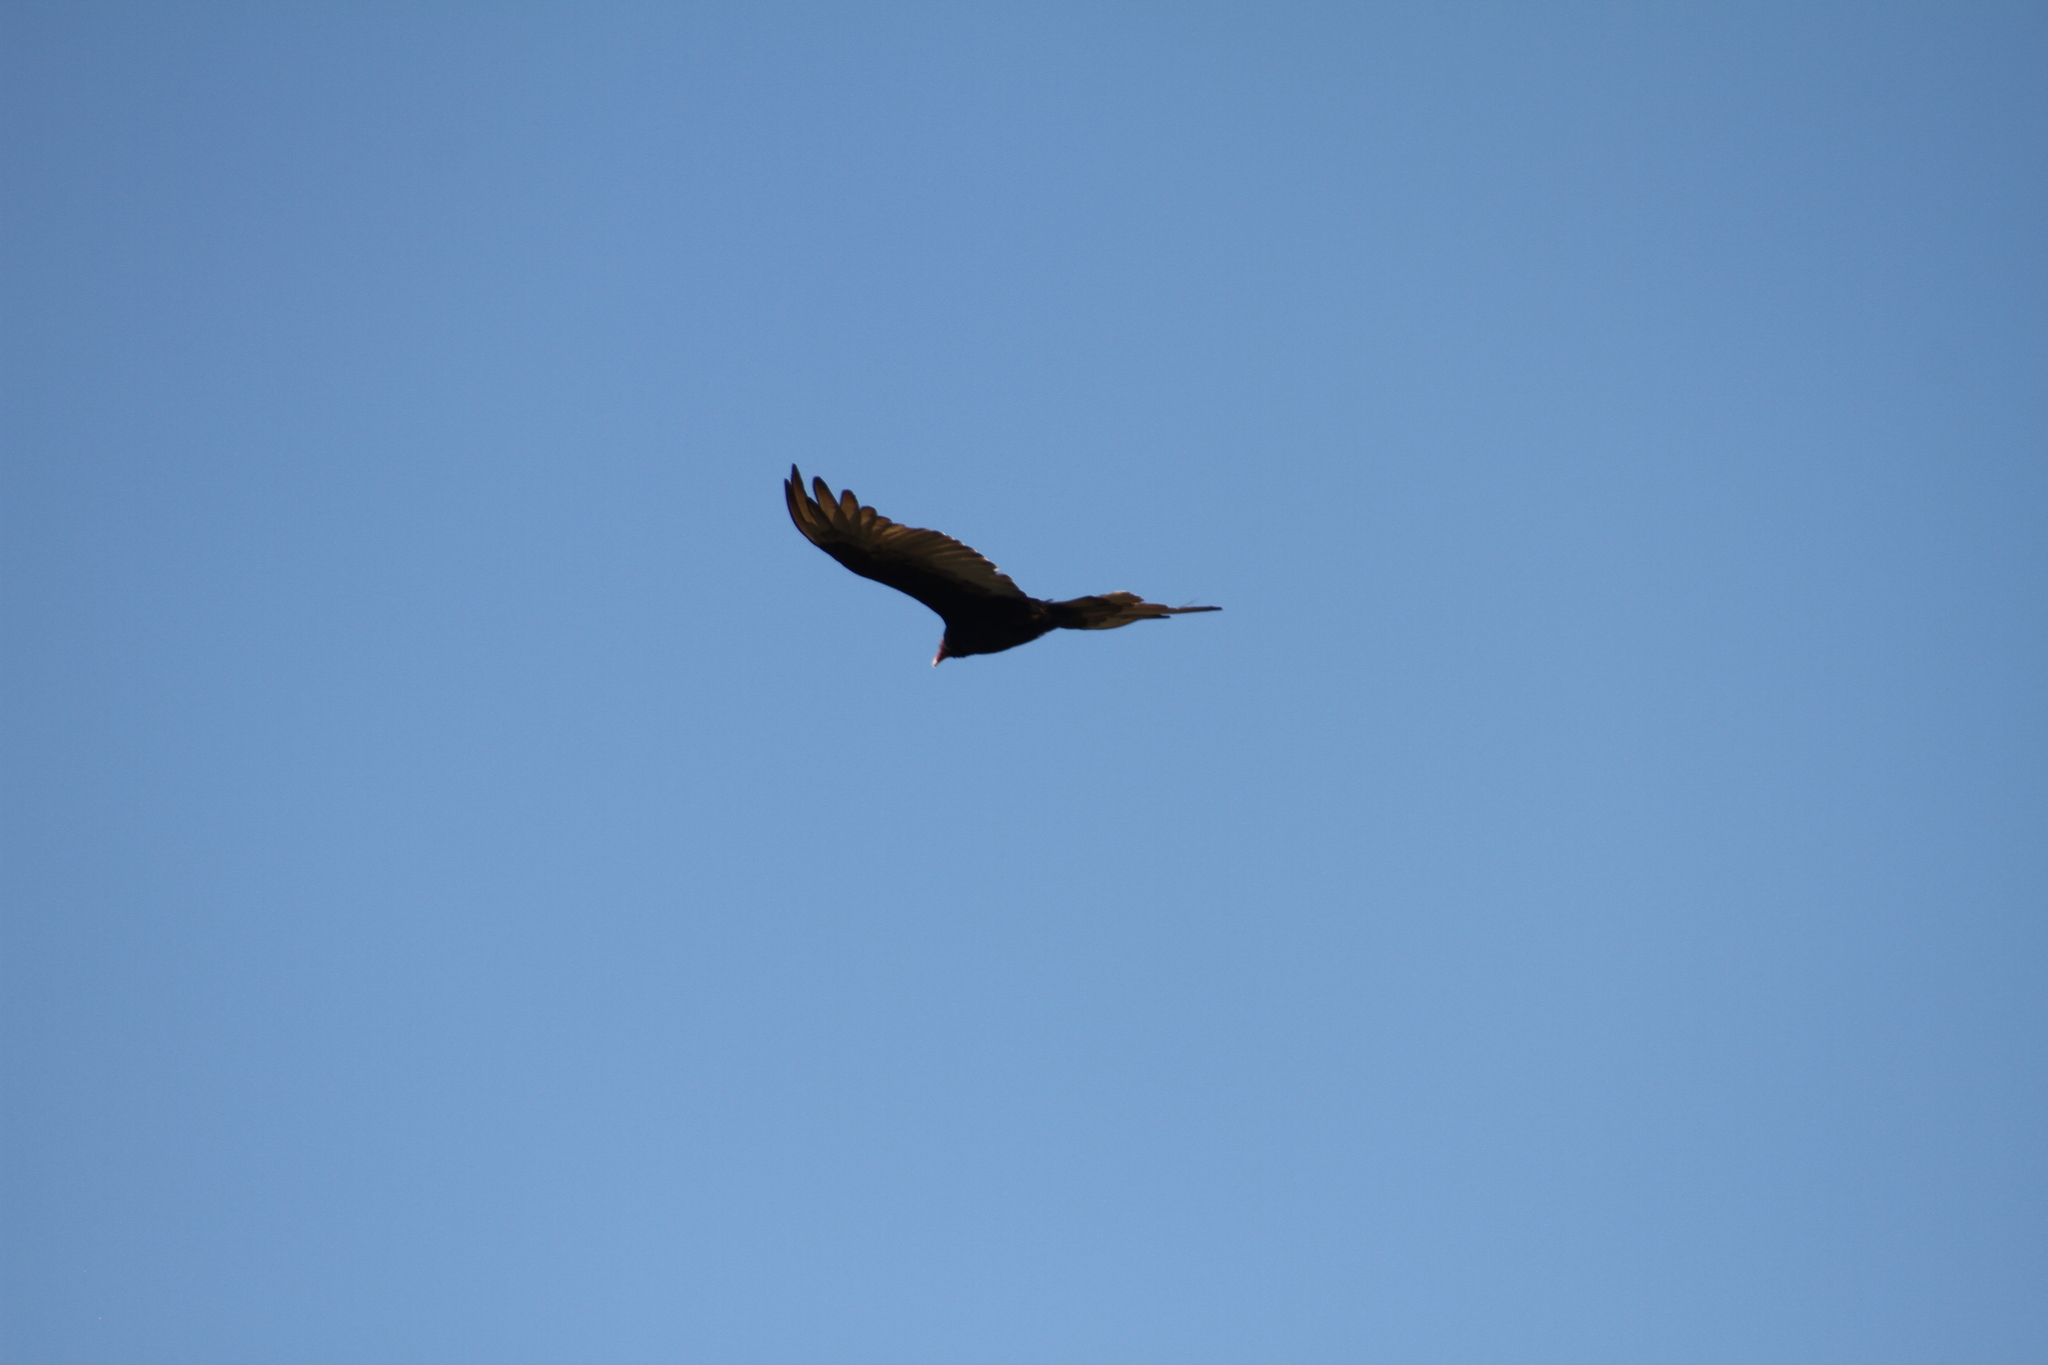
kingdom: Animalia
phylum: Chordata
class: Aves
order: Accipitriformes
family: Cathartidae
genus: Cathartes
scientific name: Cathartes aura
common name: Turkey vulture
